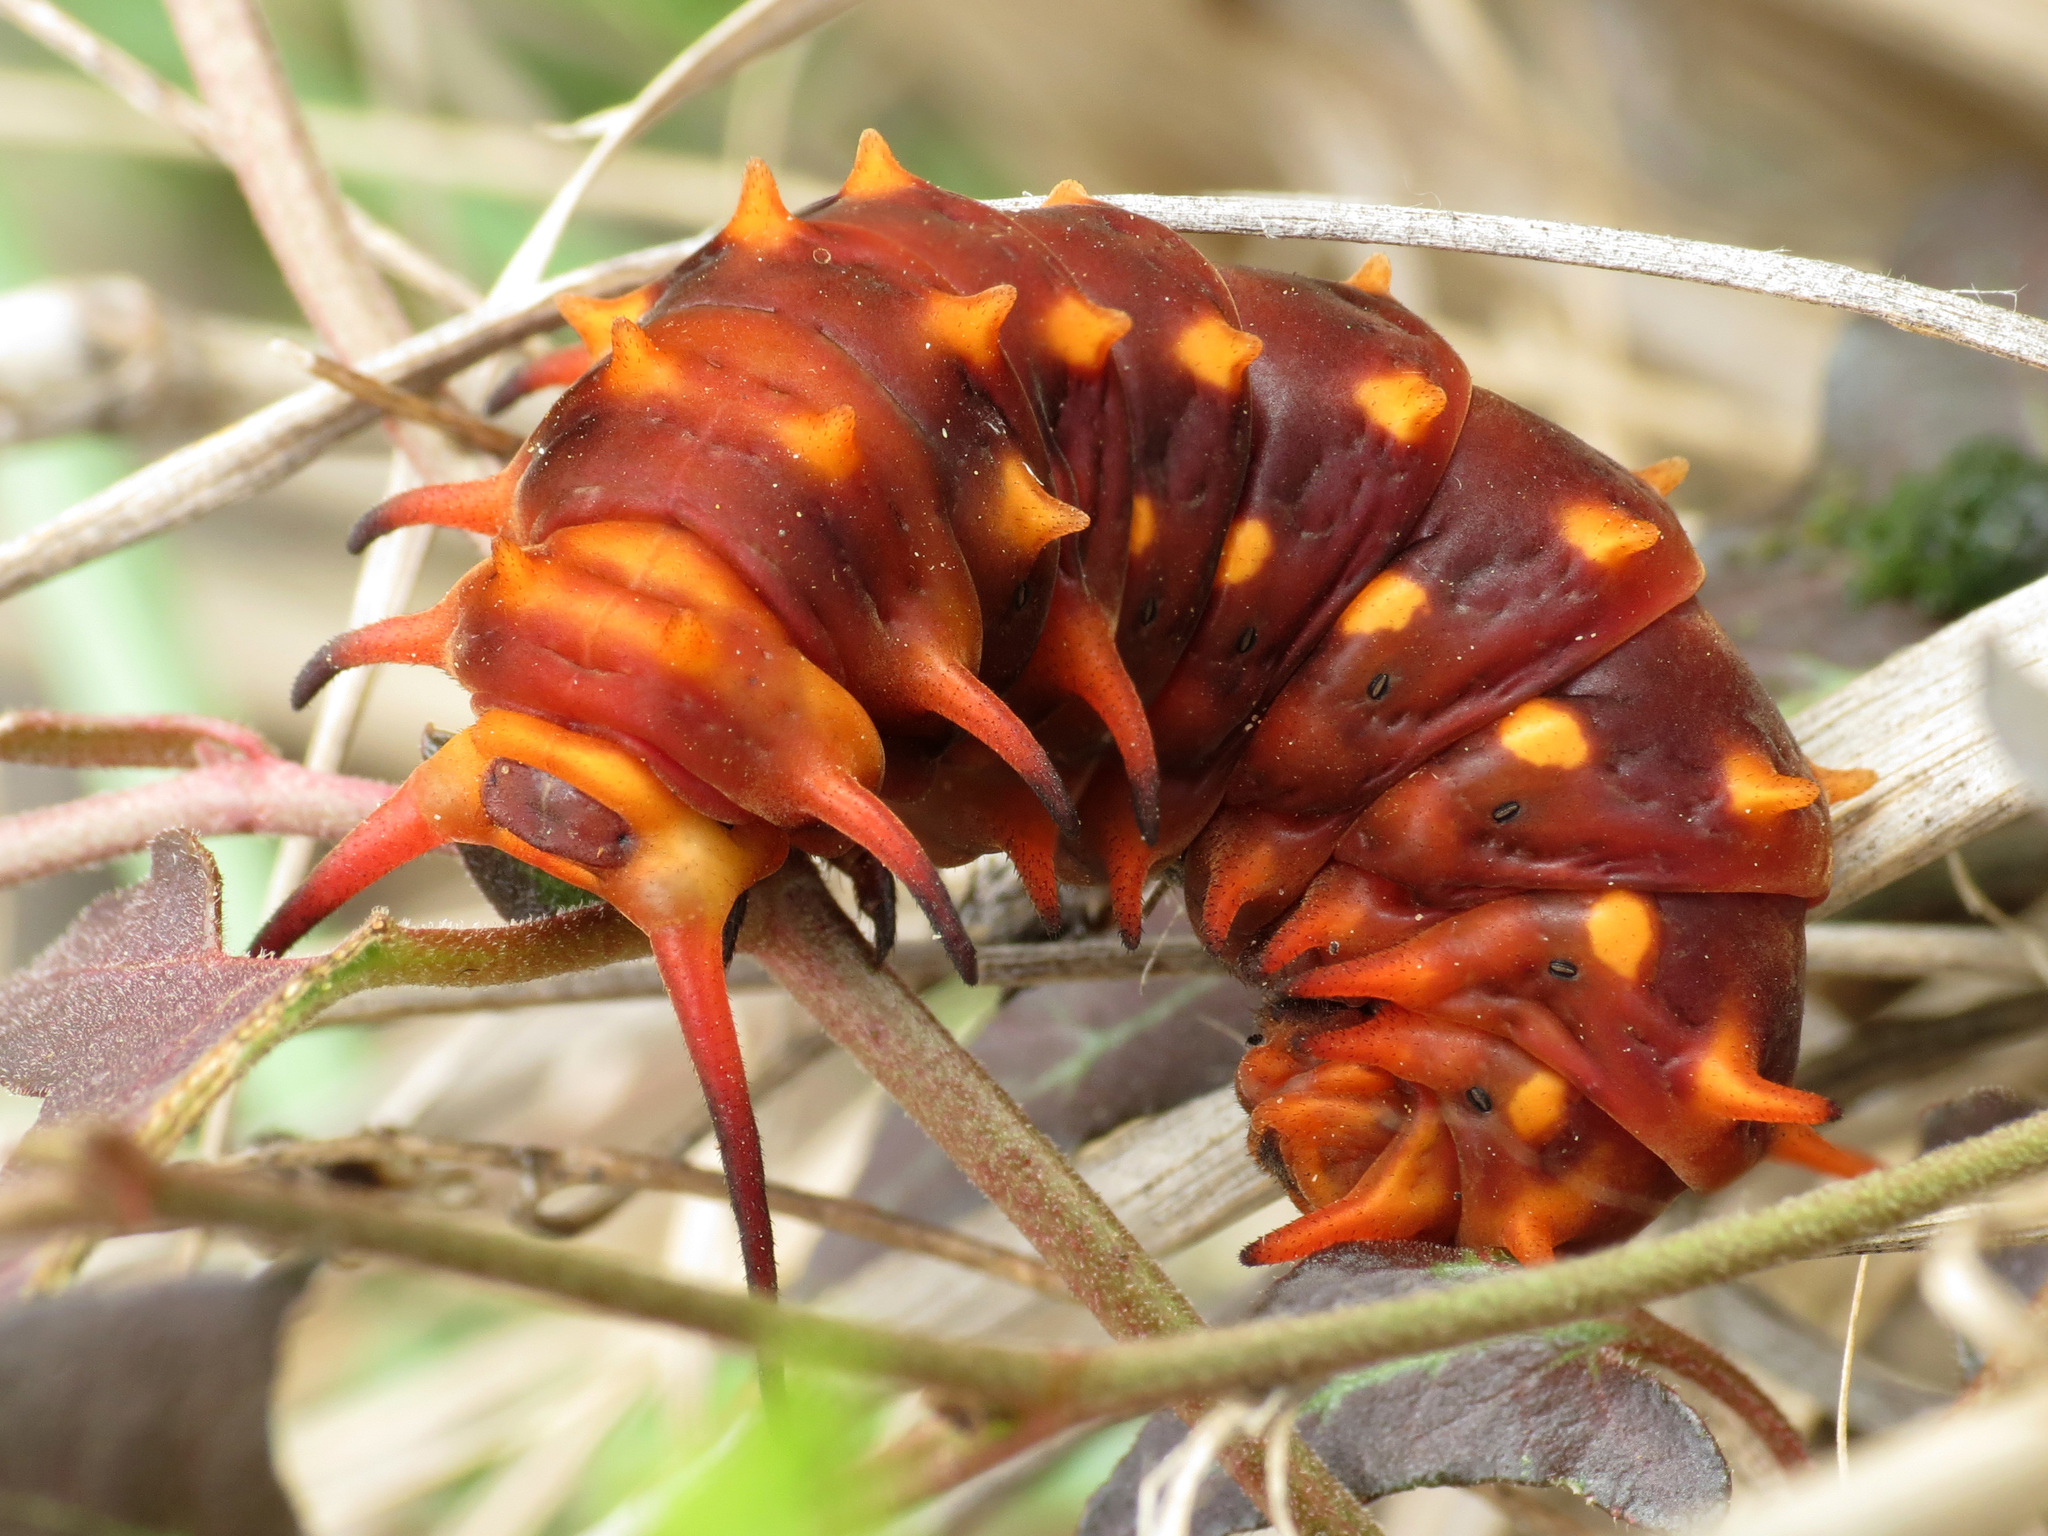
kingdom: Animalia
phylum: Arthropoda
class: Insecta
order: Lepidoptera
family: Papilionidae
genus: Battus
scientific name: Battus philenor
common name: Pipevine swallowtail
